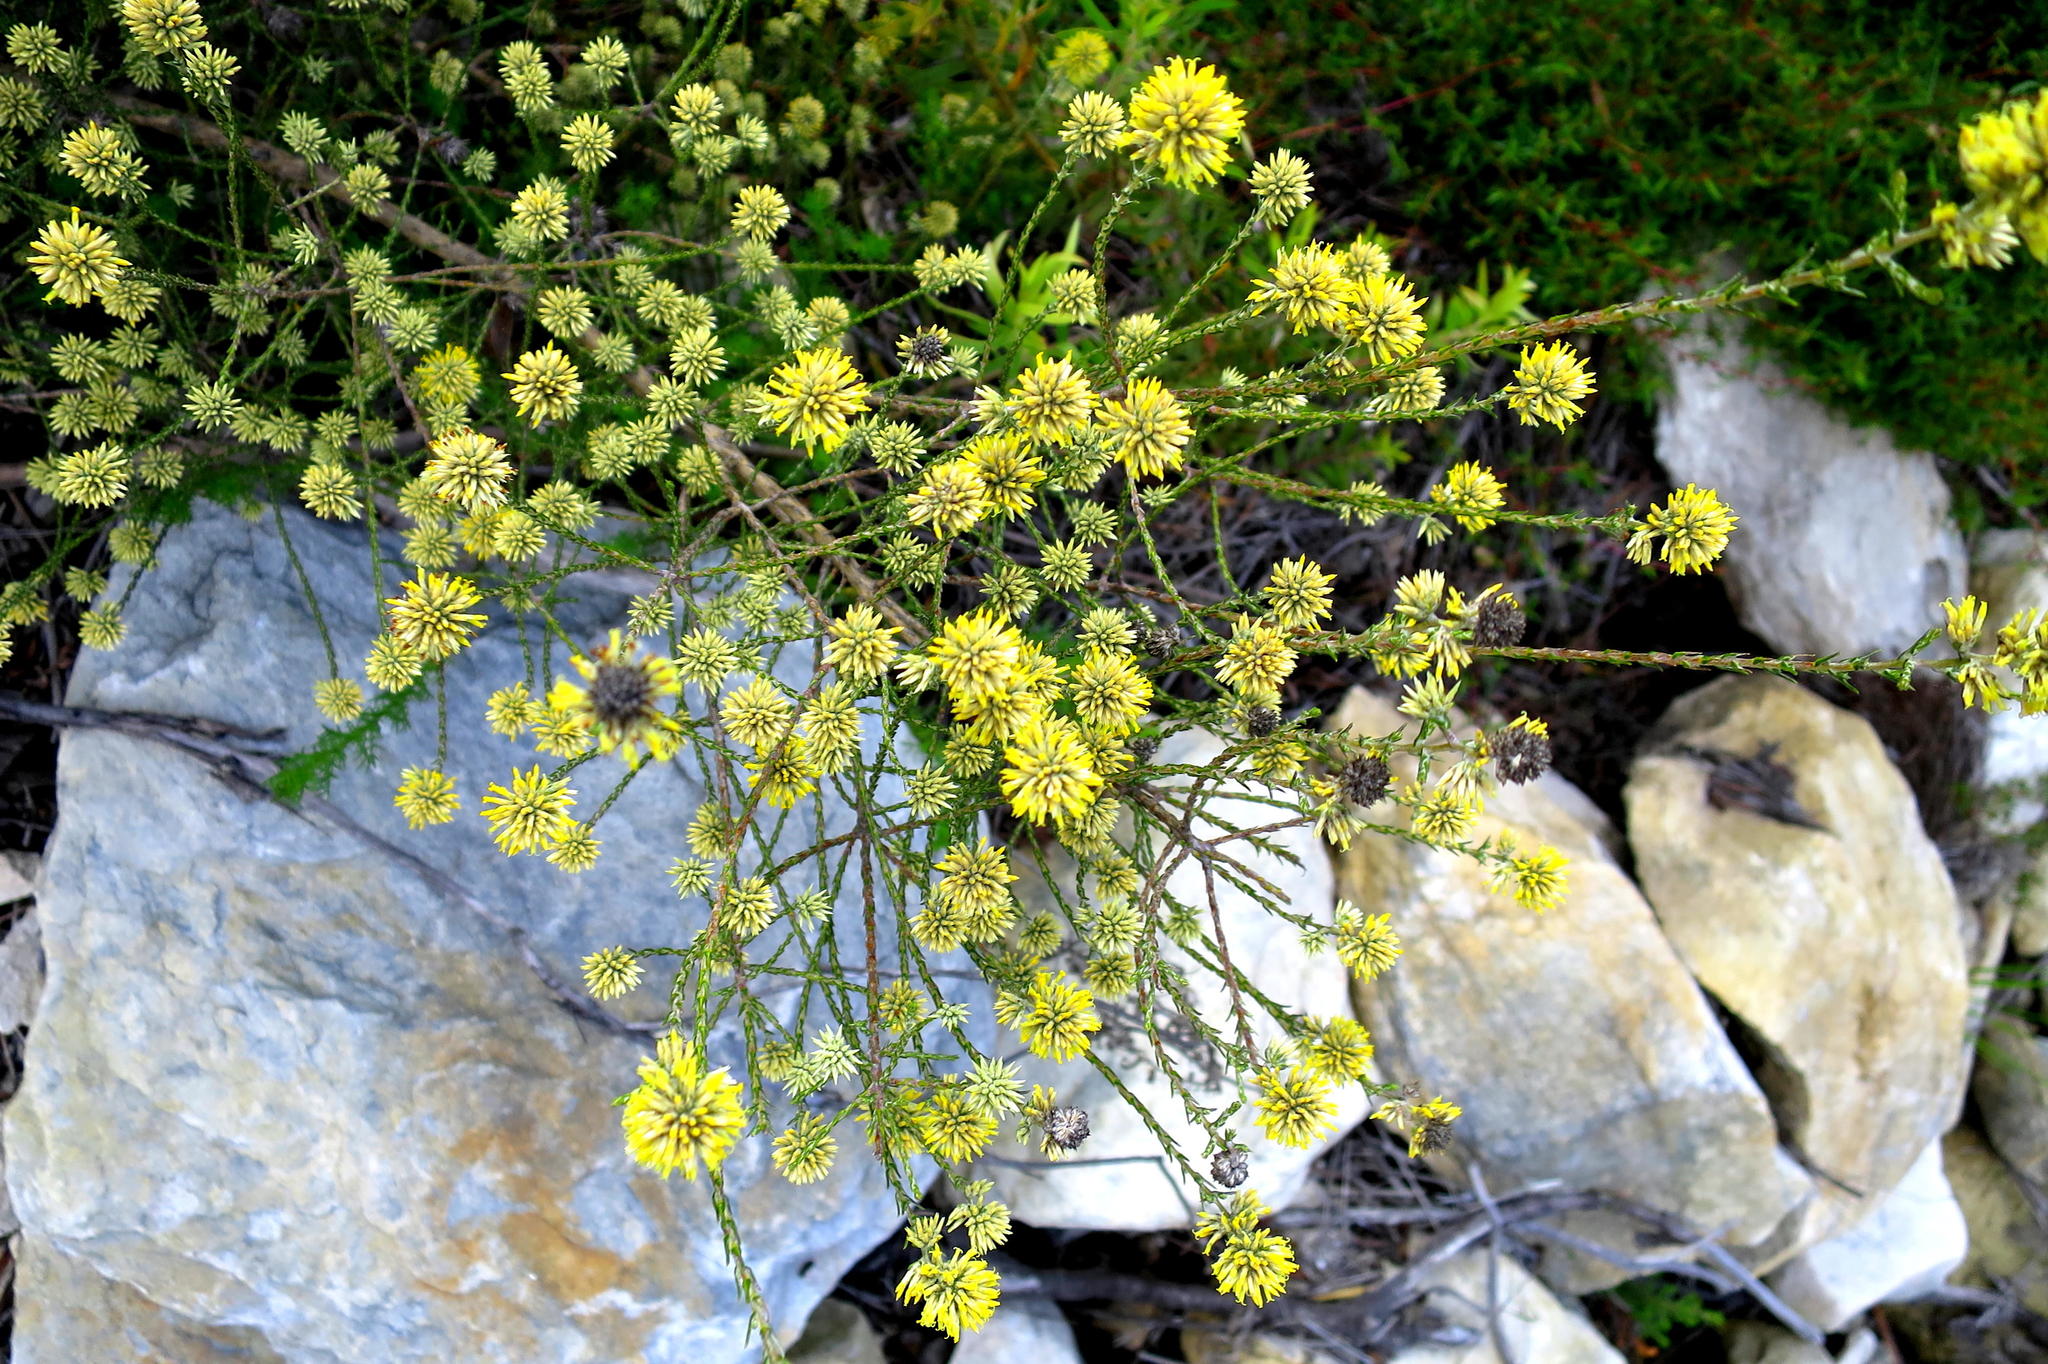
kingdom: Plantae
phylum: Tracheophyta
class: Magnoliopsida
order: Asterales
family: Asteraceae
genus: Seriphium
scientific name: Seriphium spirale
